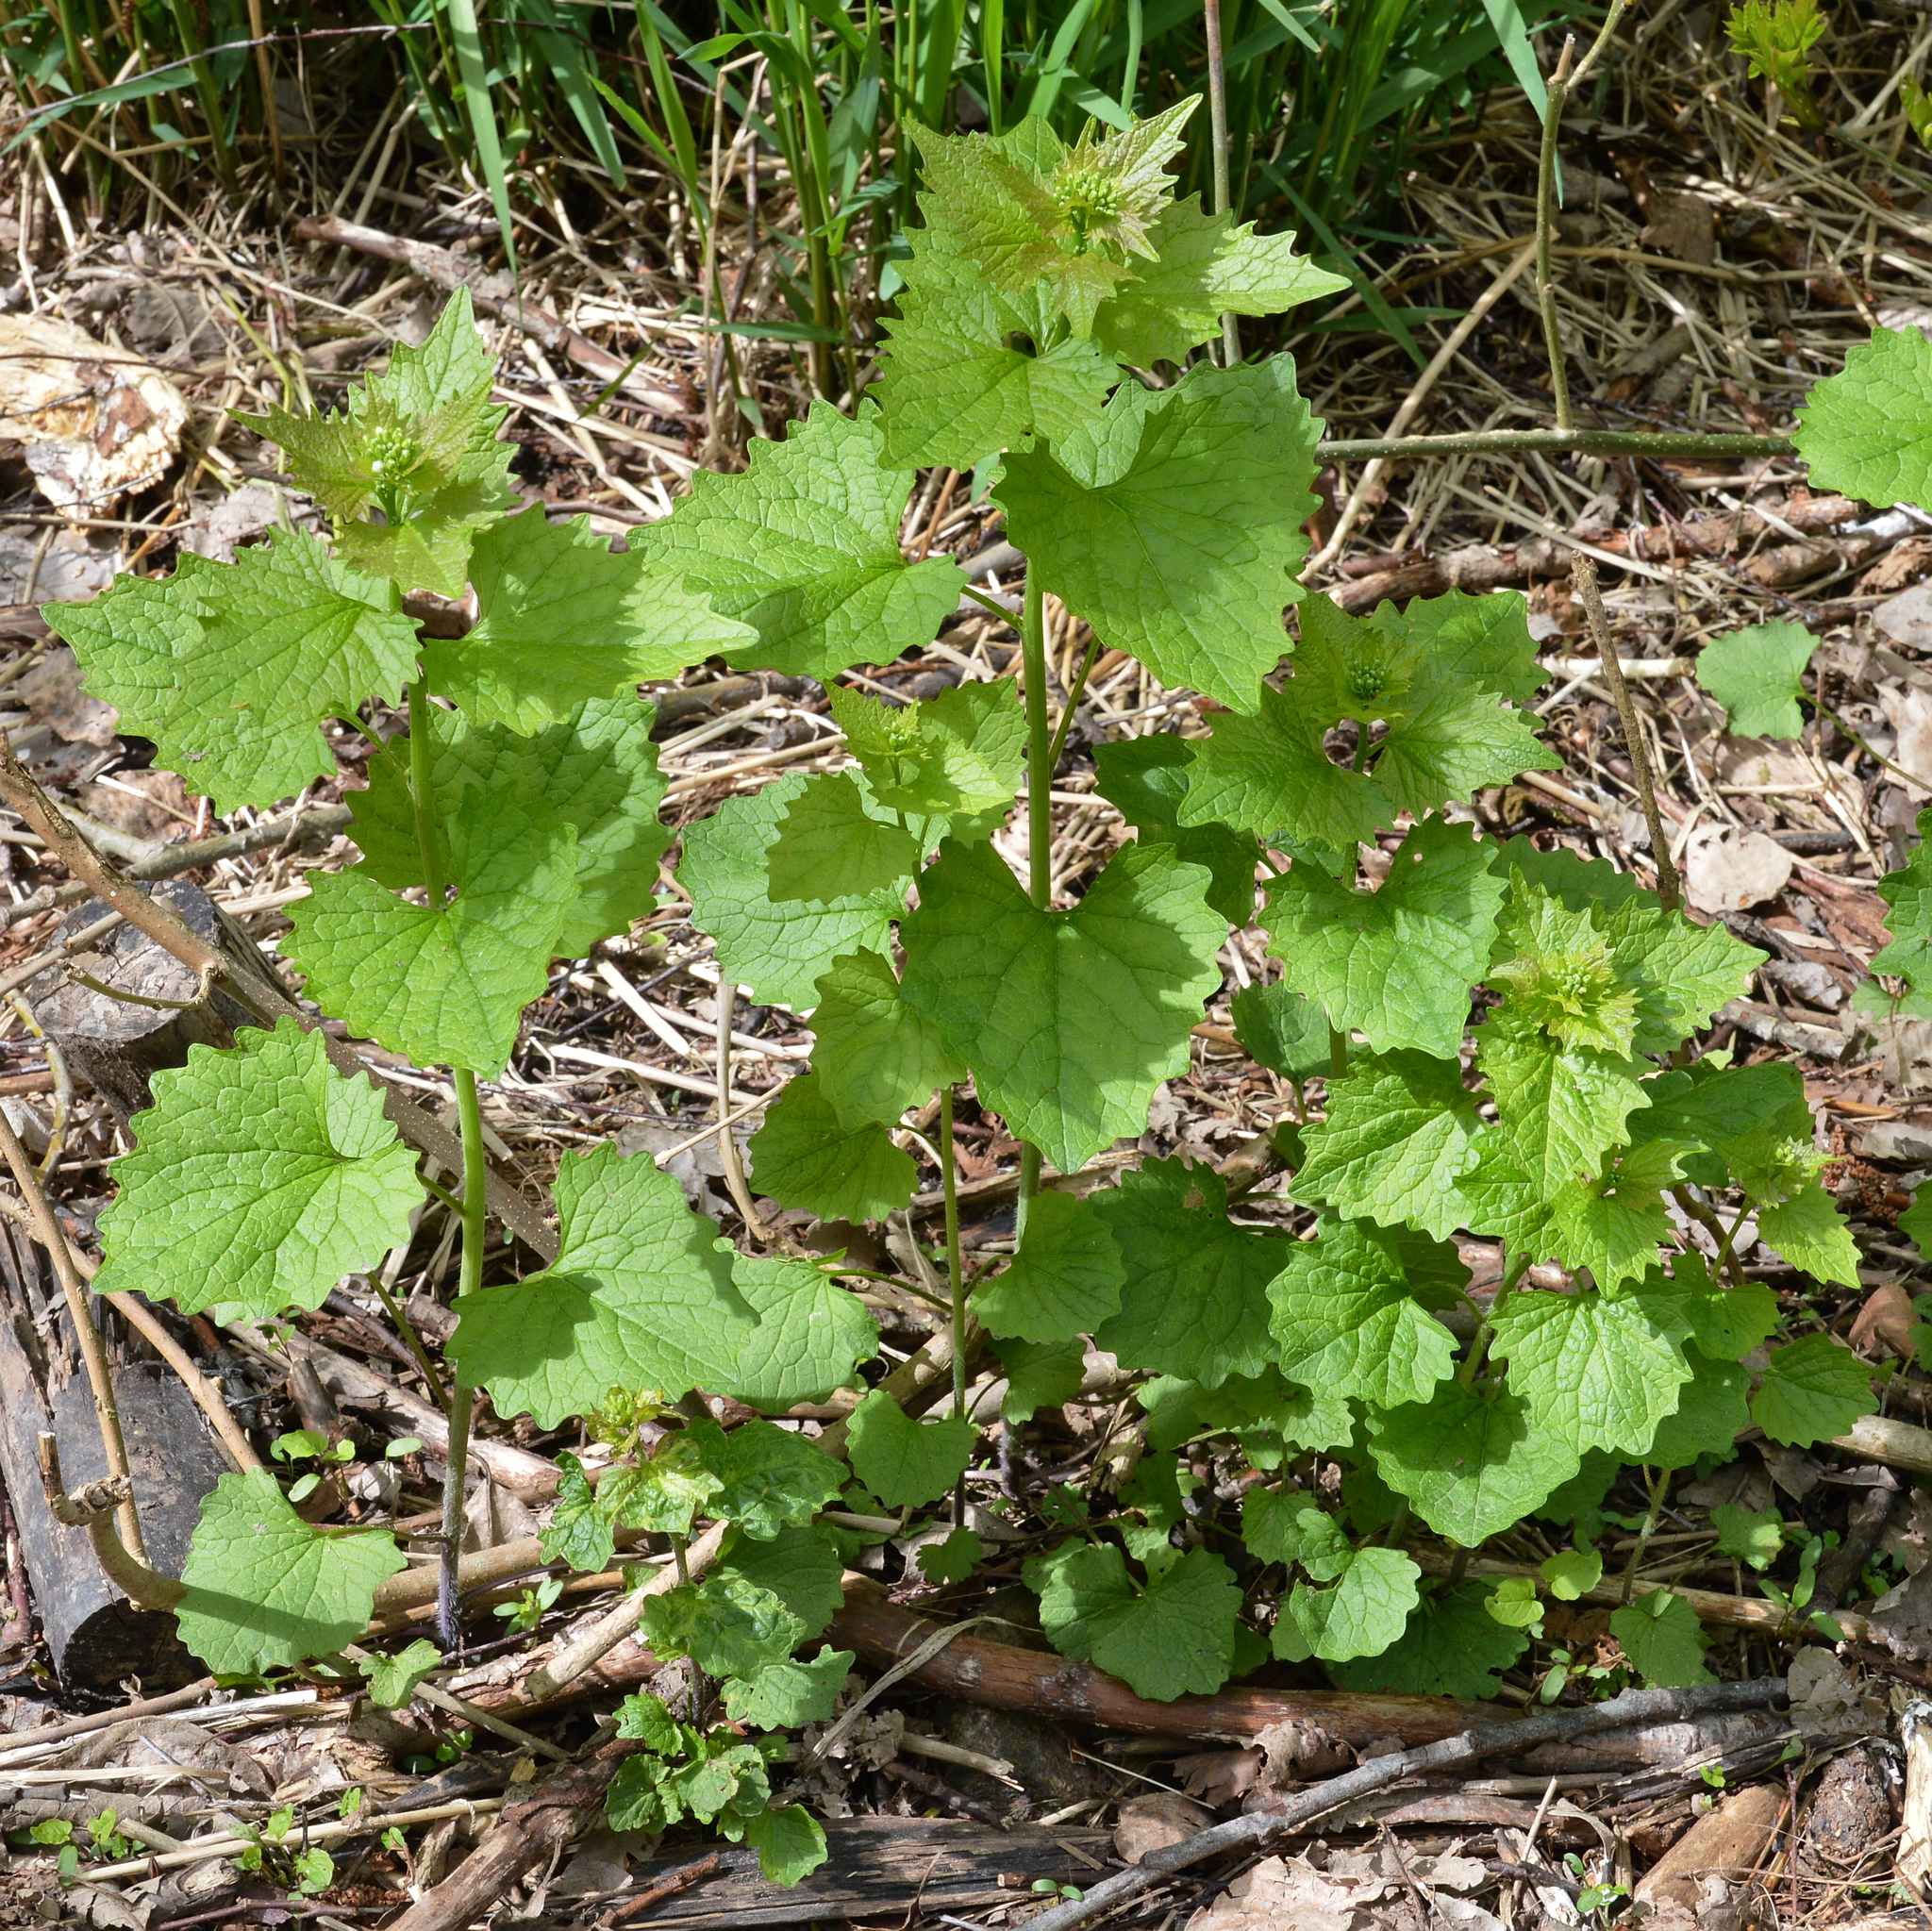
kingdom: Plantae
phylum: Tracheophyta
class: Magnoliopsida
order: Brassicales
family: Brassicaceae
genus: Alliaria
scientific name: Alliaria petiolata
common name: Garlic mustard
